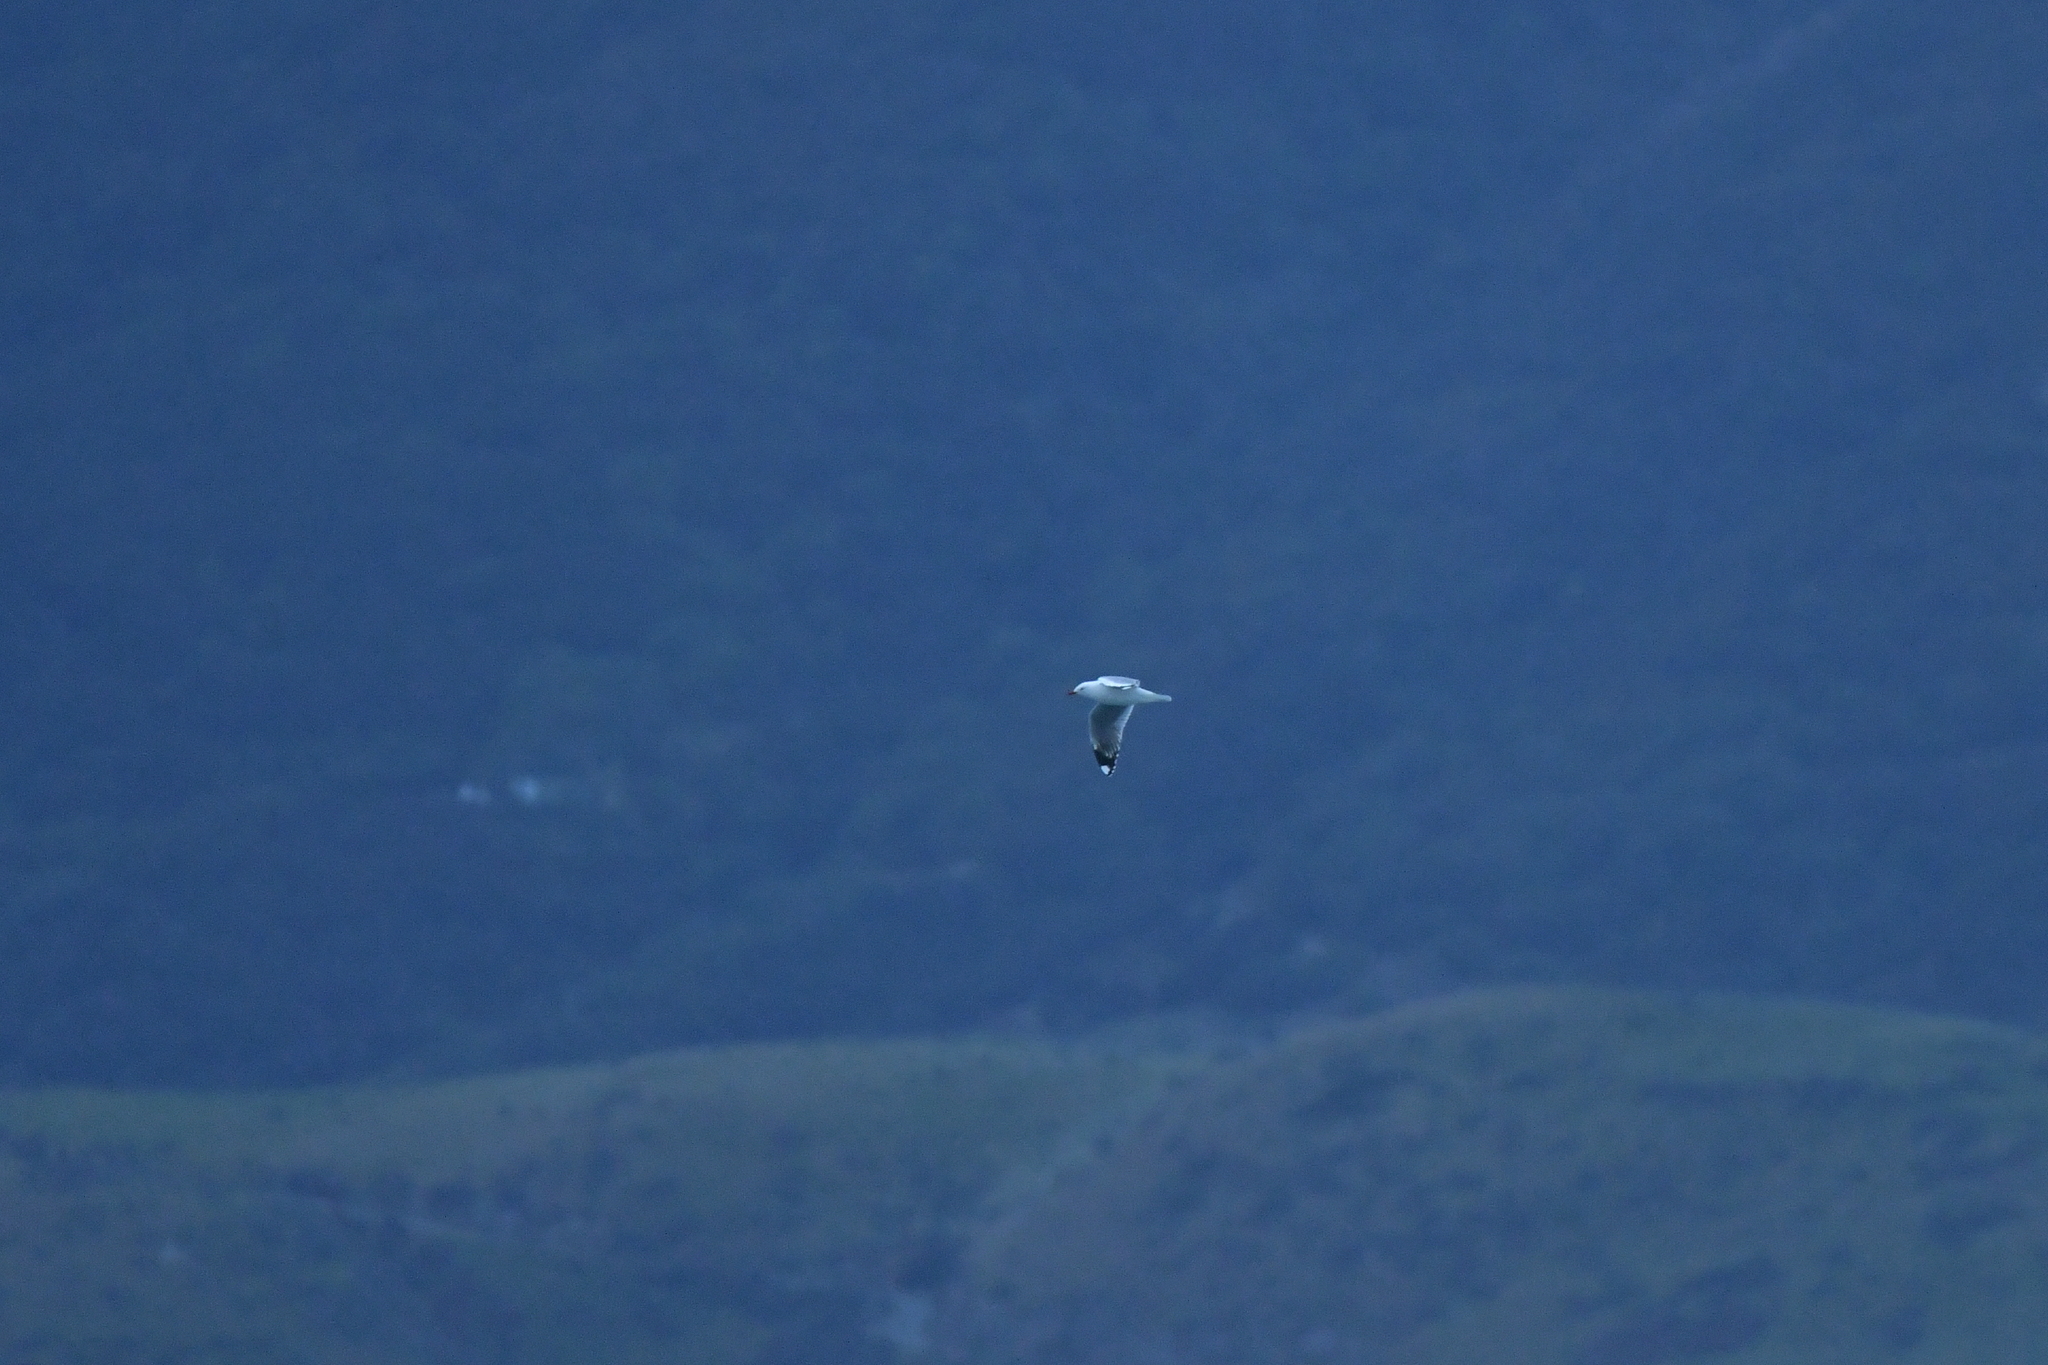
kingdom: Animalia
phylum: Chordata
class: Aves
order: Charadriiformes
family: Laridae
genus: Chroicocephalus
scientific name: Chroicocephalus novaehollandiae
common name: Silver gull
